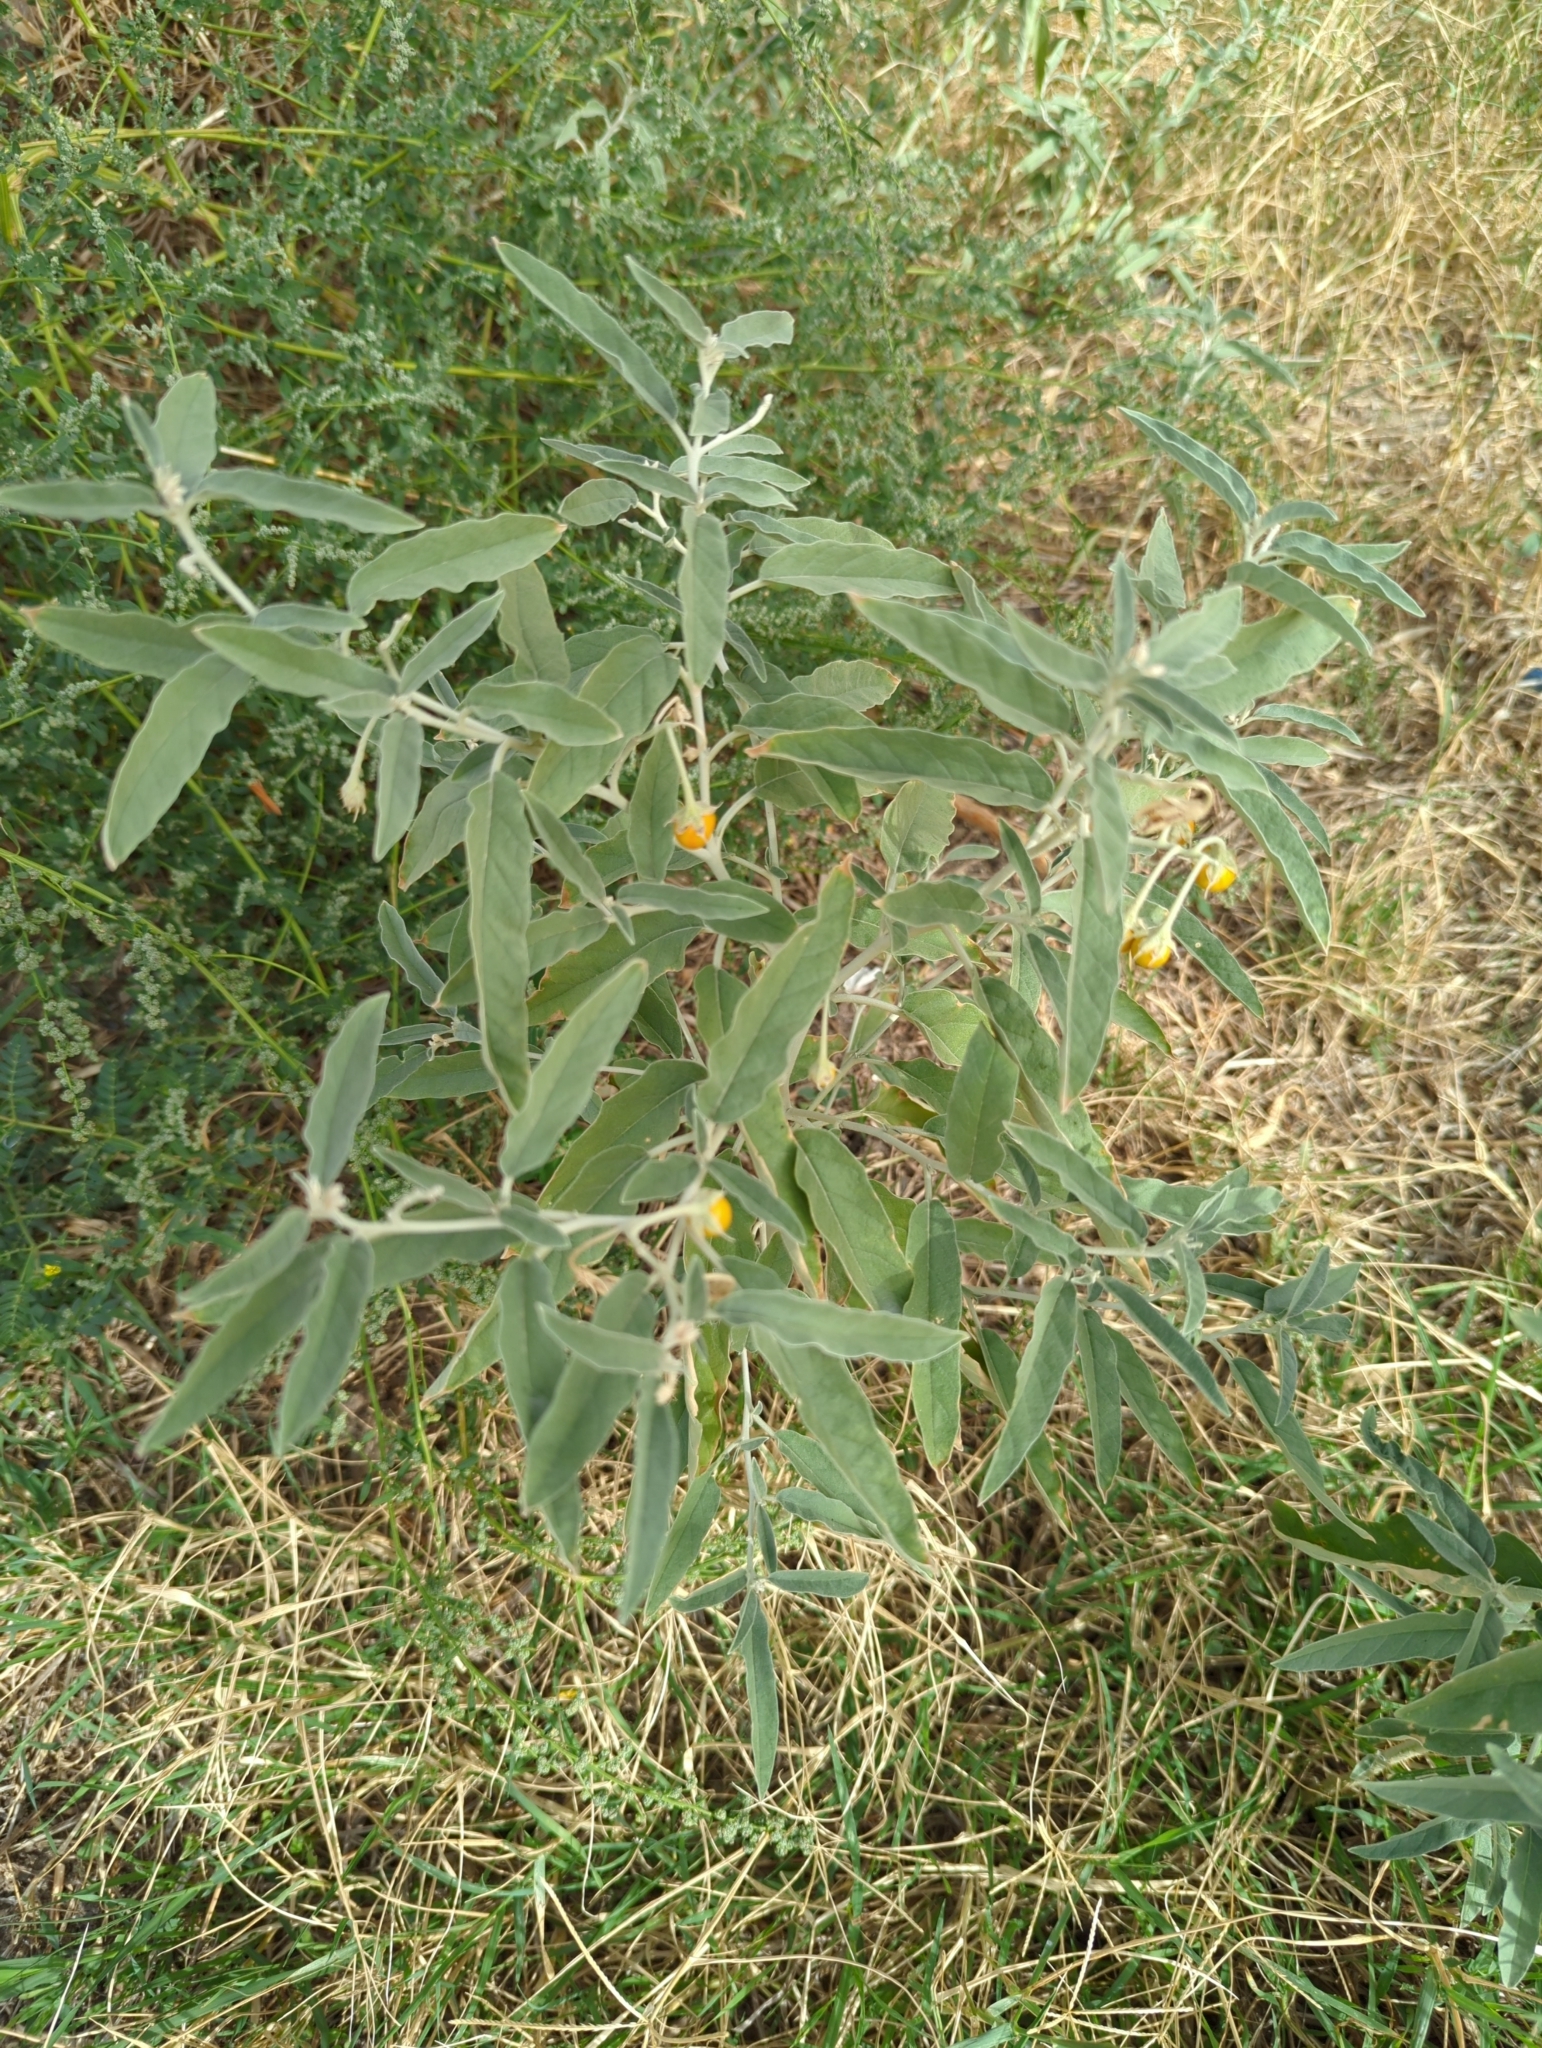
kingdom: Plantae
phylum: Tracheophyta
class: Magnoliopsida
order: Solanales
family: Solanaceae
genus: Solanum
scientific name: Solanum elaeagnifolium
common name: Silverleaf nightshade
